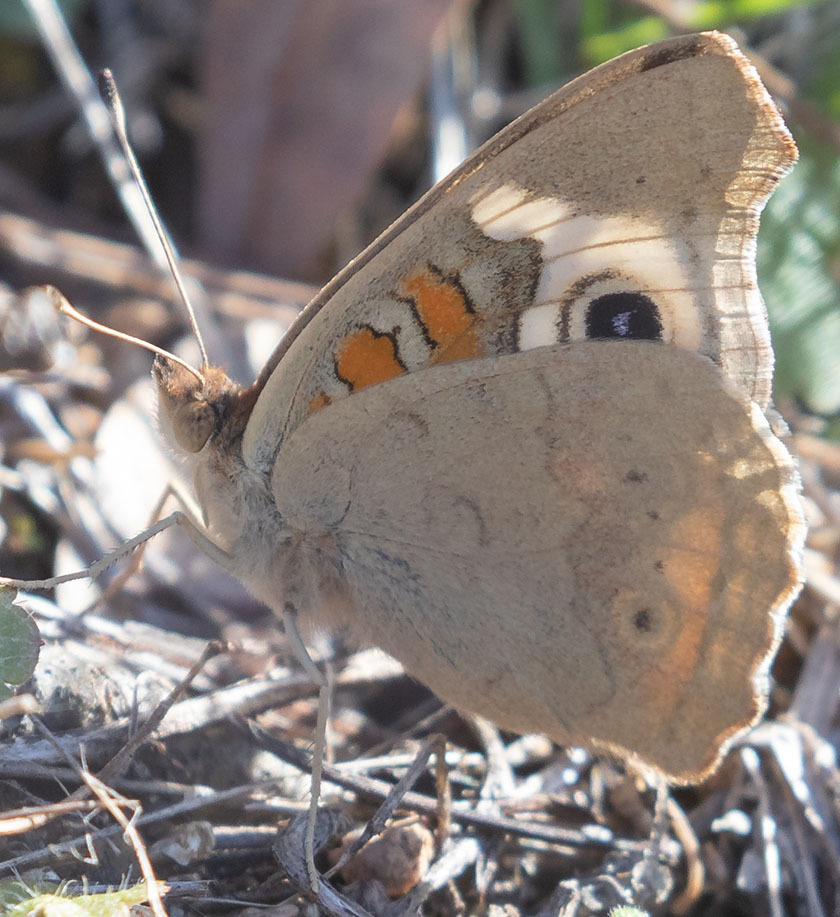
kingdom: Animalia
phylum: Arthropoda
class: Insecta
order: Lepidoptera
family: Nymphalidae
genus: Junonia
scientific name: Junonia grisea
